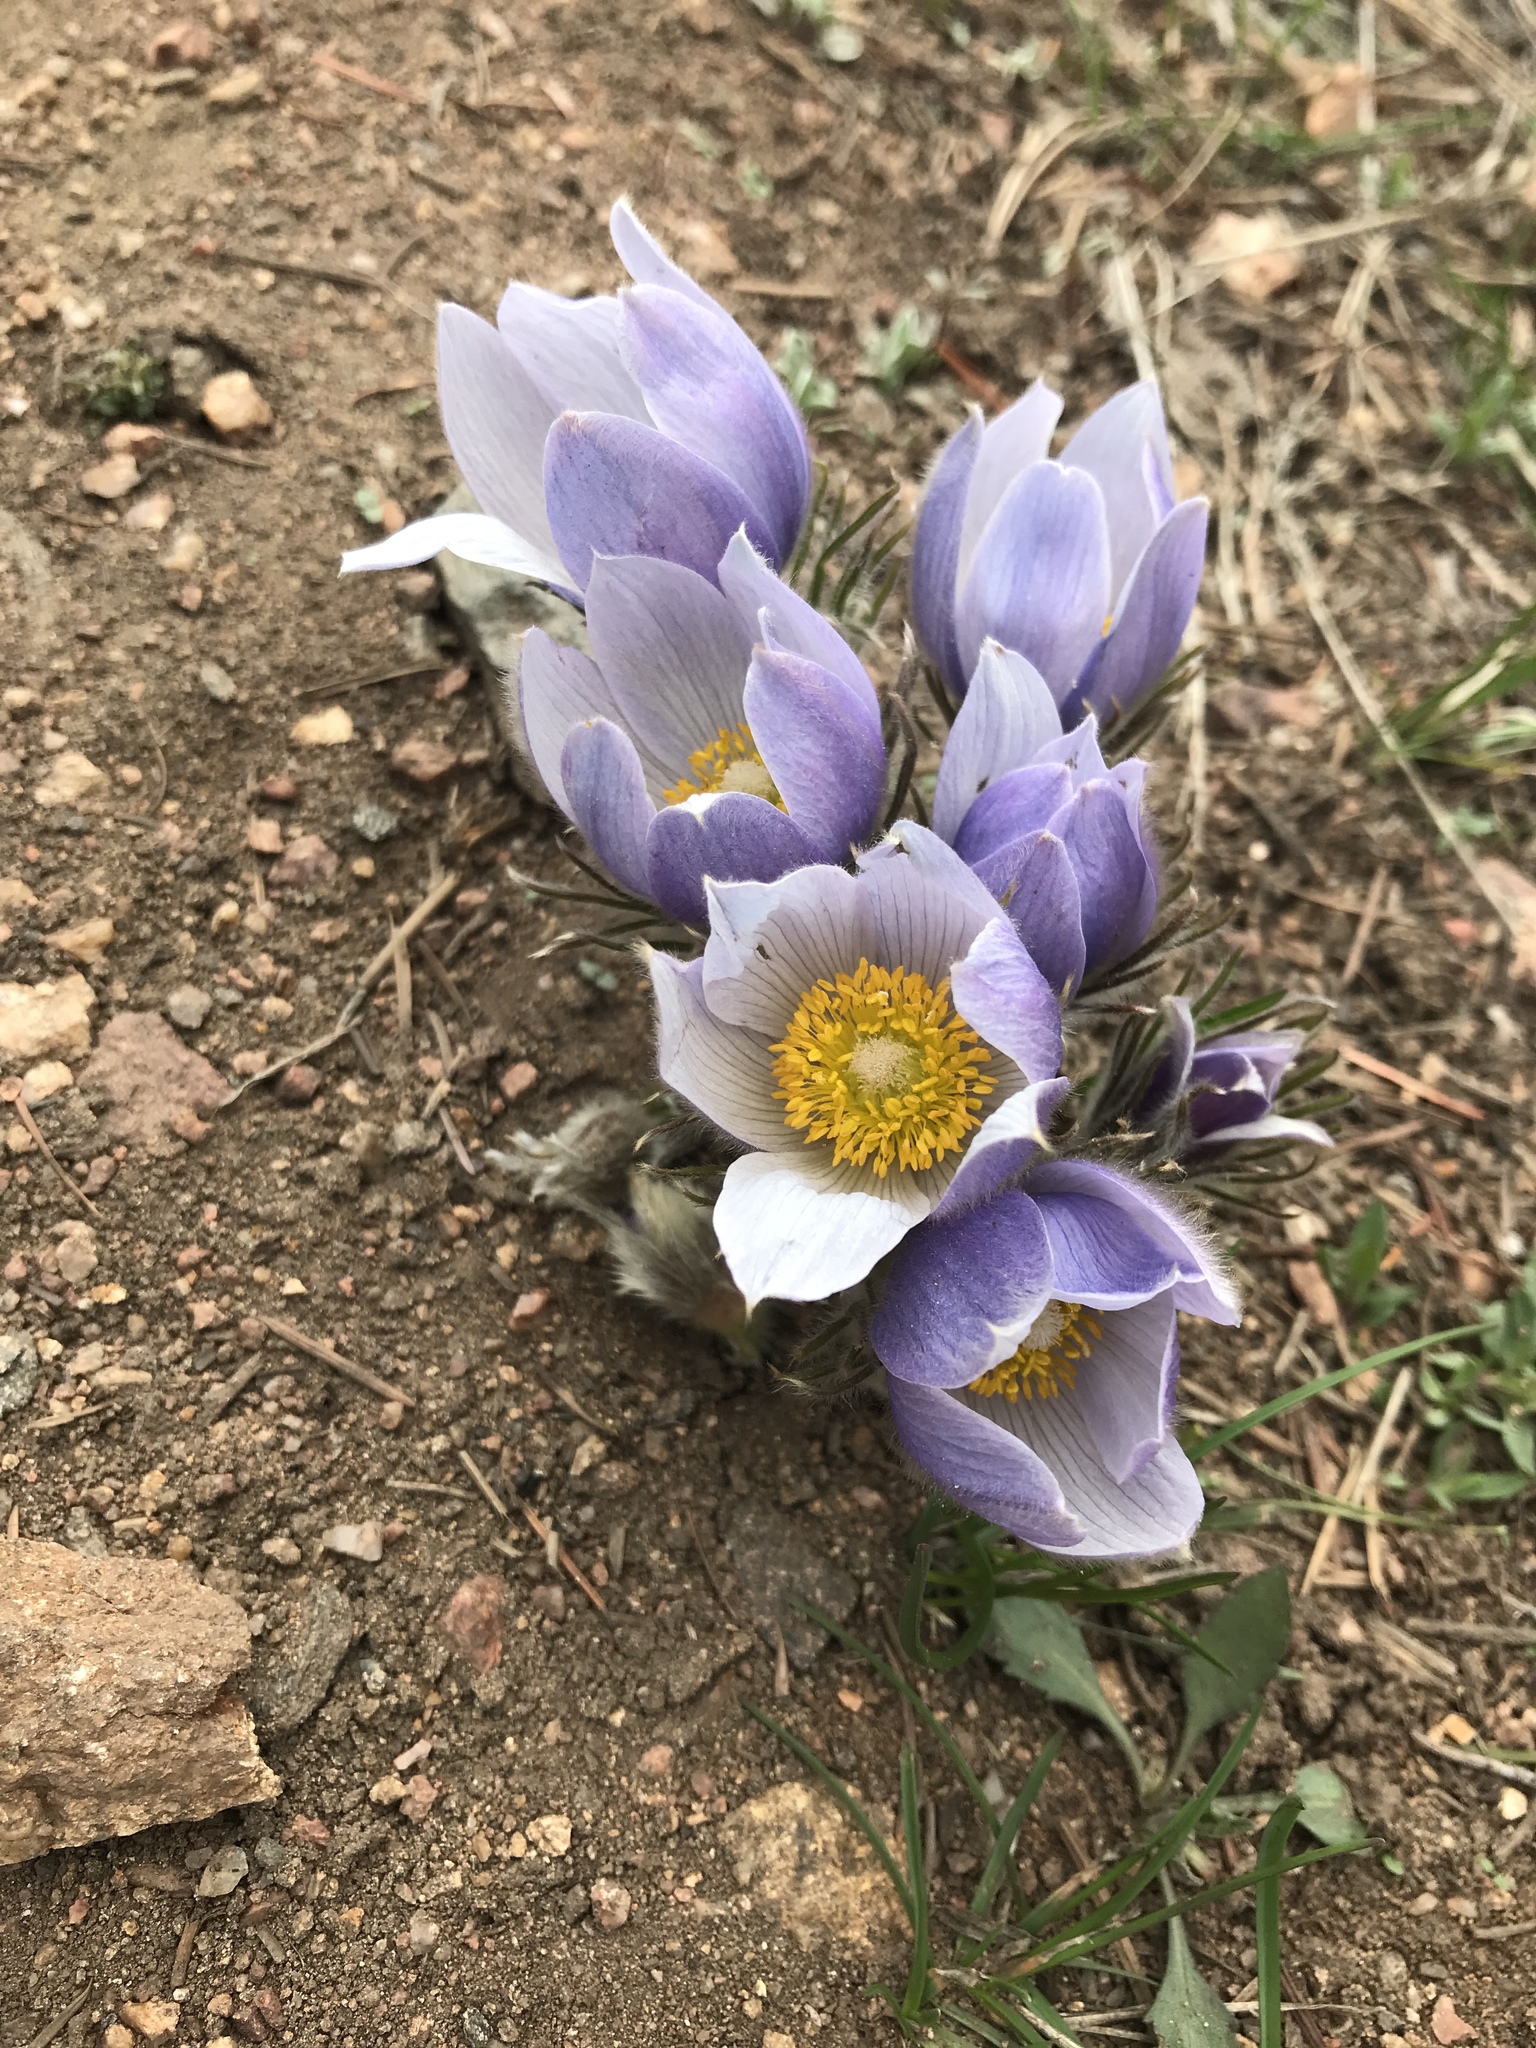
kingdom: Plantae
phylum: Tracheophyta
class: Magnoliopsida
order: Ranunculales
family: Ranunculaceae
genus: Pulsatilla
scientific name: Pulsatilla nuttalliana
